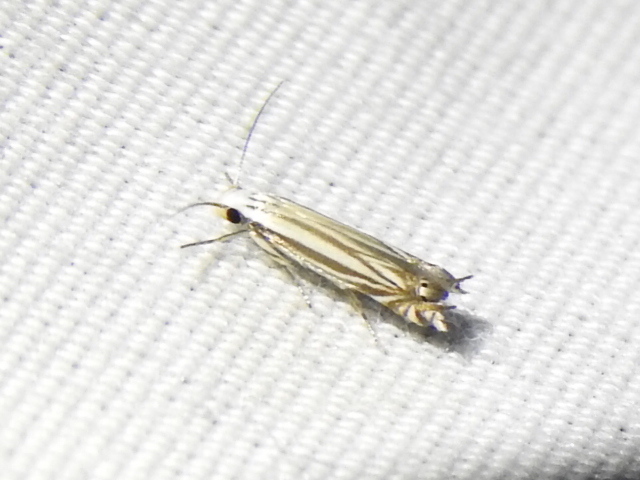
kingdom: Animalia
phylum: Arthropoda
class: Insecta
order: Lepidoptera
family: Gelechiidae
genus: Polyhymno
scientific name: Polyhymno luteostrigella
